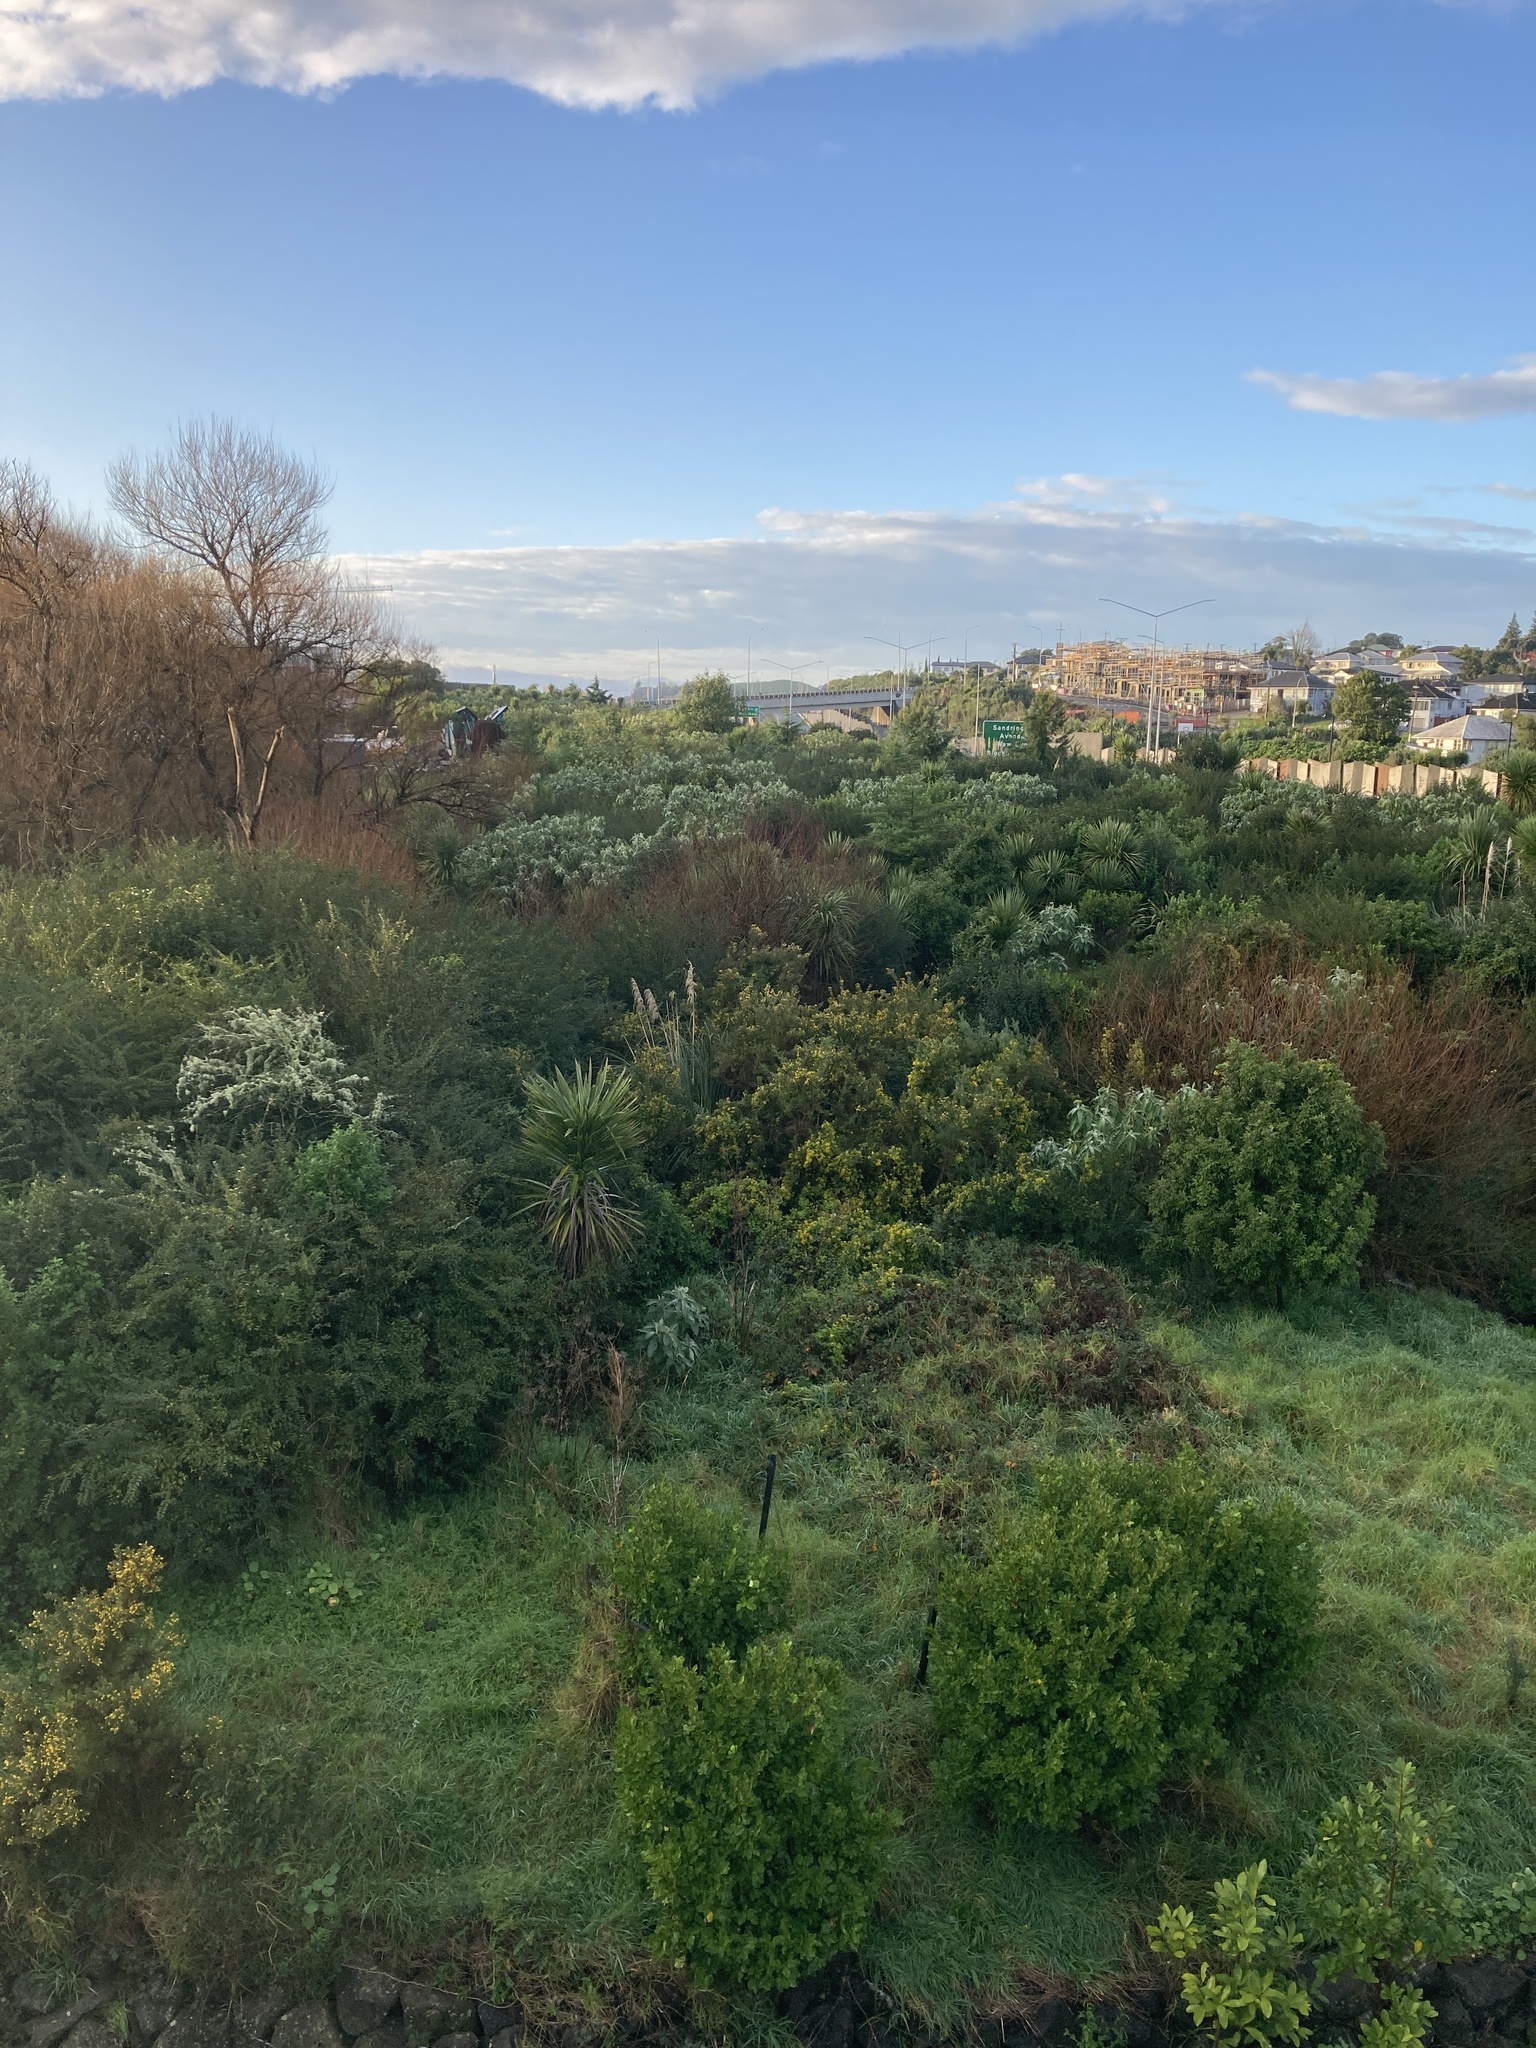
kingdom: Plantae
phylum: Tracheophyta
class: Liliopsida
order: Asparagales
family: Asparagaceae
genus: Cordyline
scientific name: Cordyline australis
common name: Cabbage-palm
